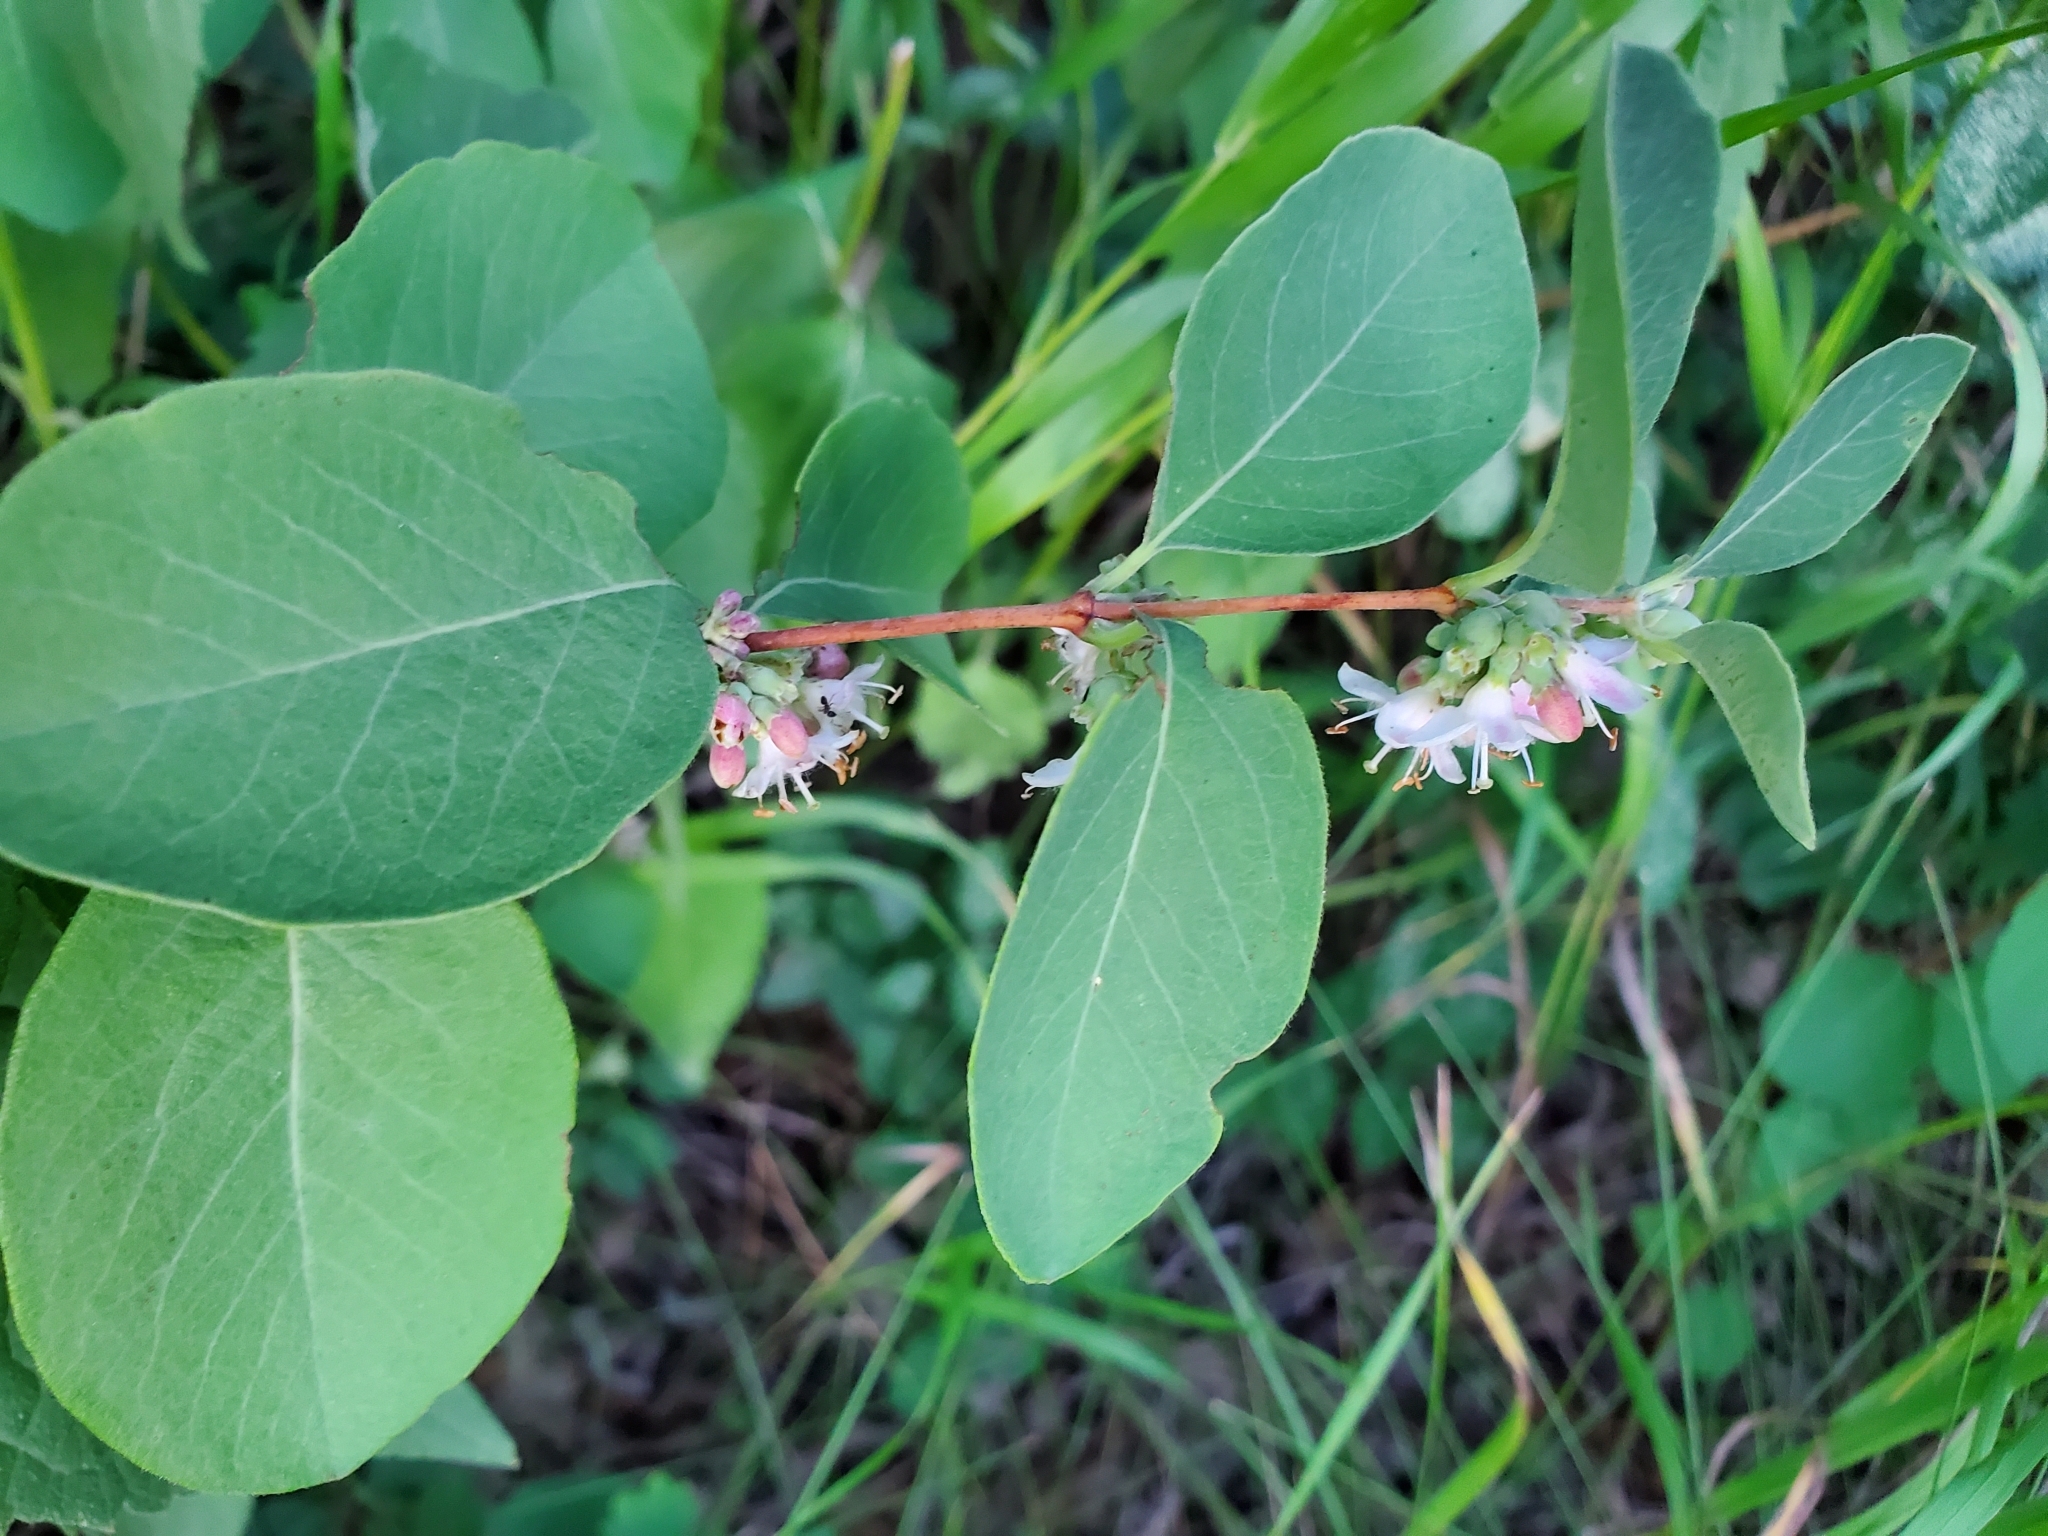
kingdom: Plantae
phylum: Tracheophyta
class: Magnoliopsida
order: Dipsacales
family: Caprifoliaceae
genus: Symphoricarpos
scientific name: Symphoricarpos occidentalis
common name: Wolfberry
